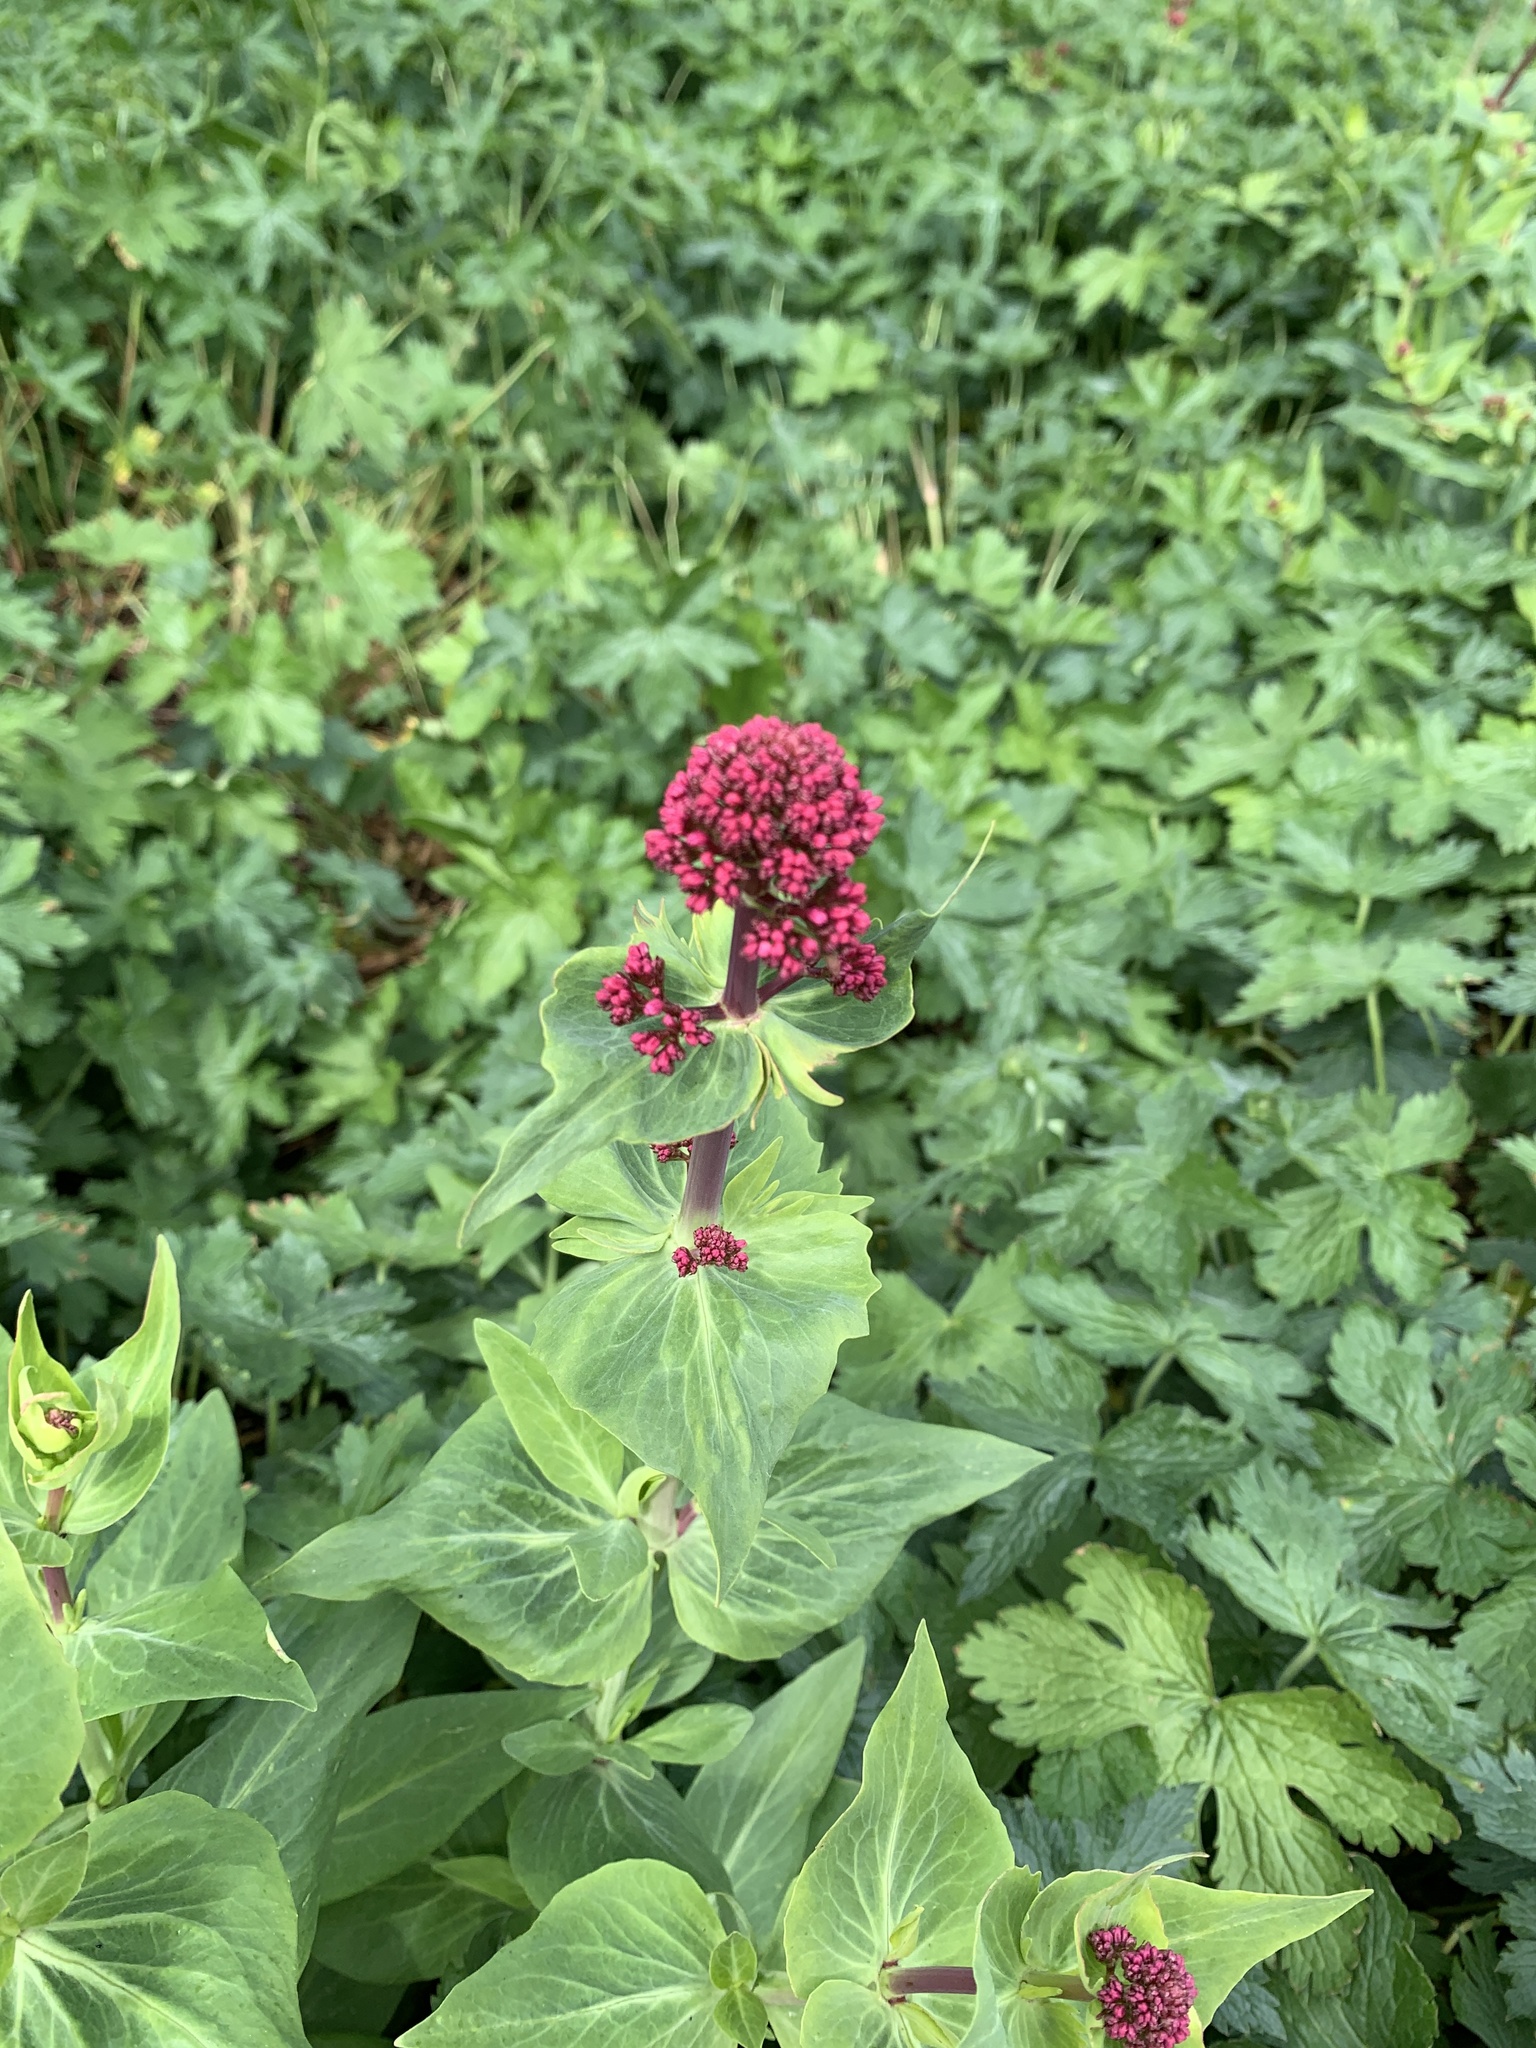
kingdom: Plantae
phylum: Tracheophyta
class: Magnoliopsida
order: Dipsacales
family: Caprifoliaceae
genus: Centranthus
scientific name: Centranthus ruber
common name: Red valerian
